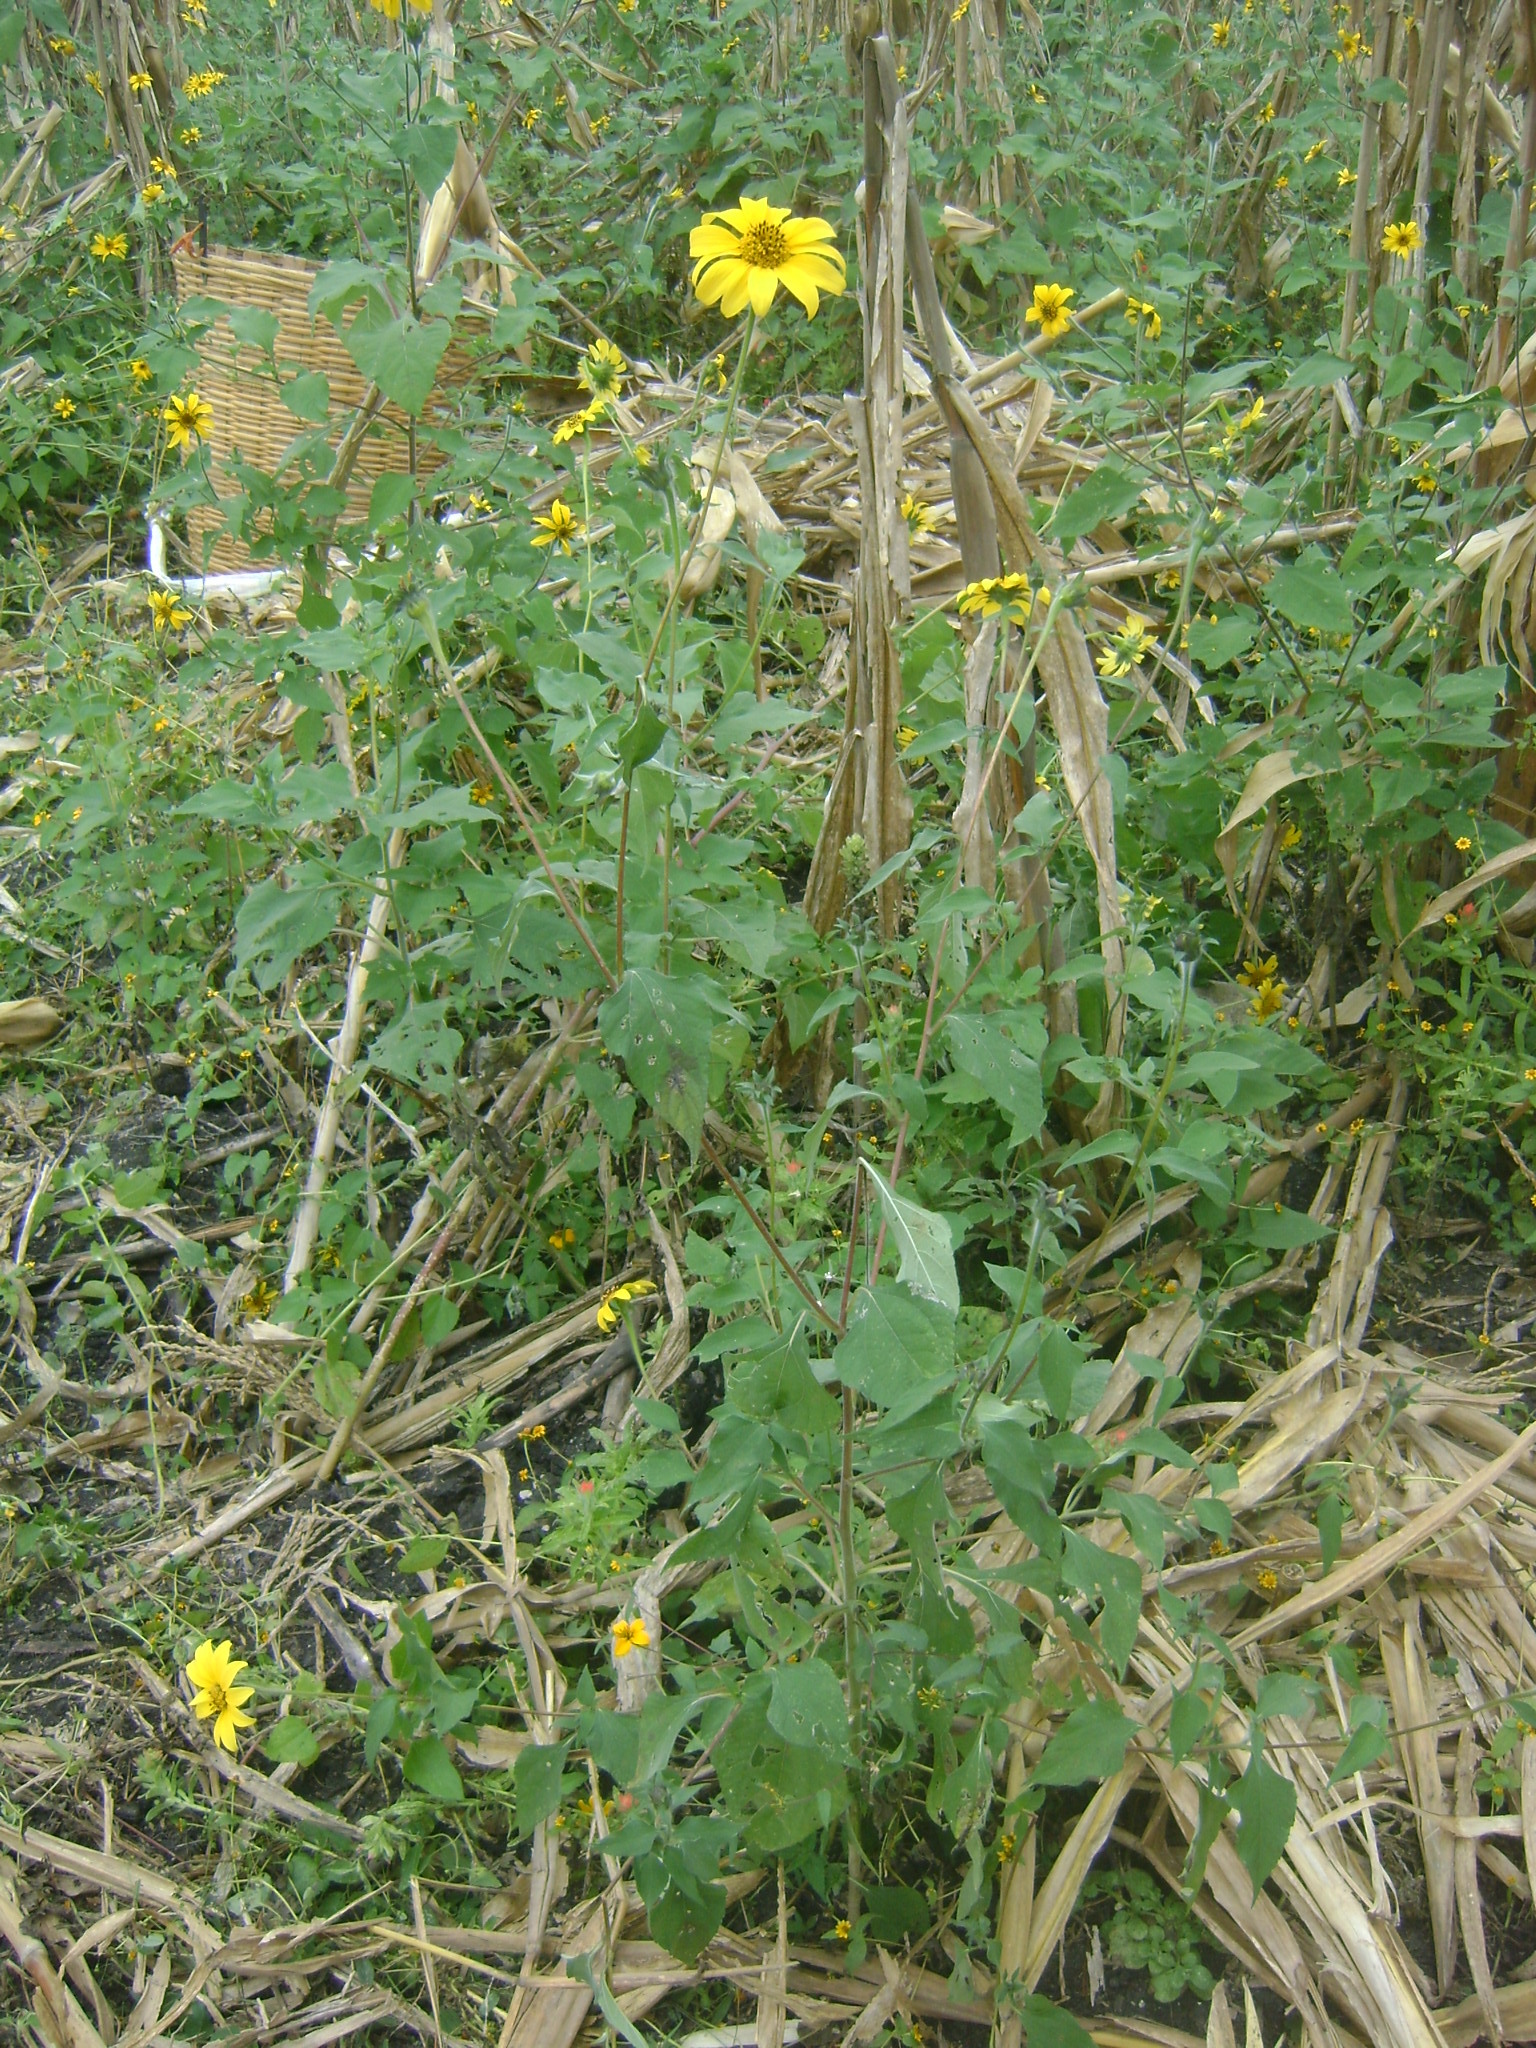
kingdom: Plantae
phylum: Tracheophyta
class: Magnoliopsida
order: Asterales
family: Asteraceae
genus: Tithonia
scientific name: Tithonia tubaeformis
